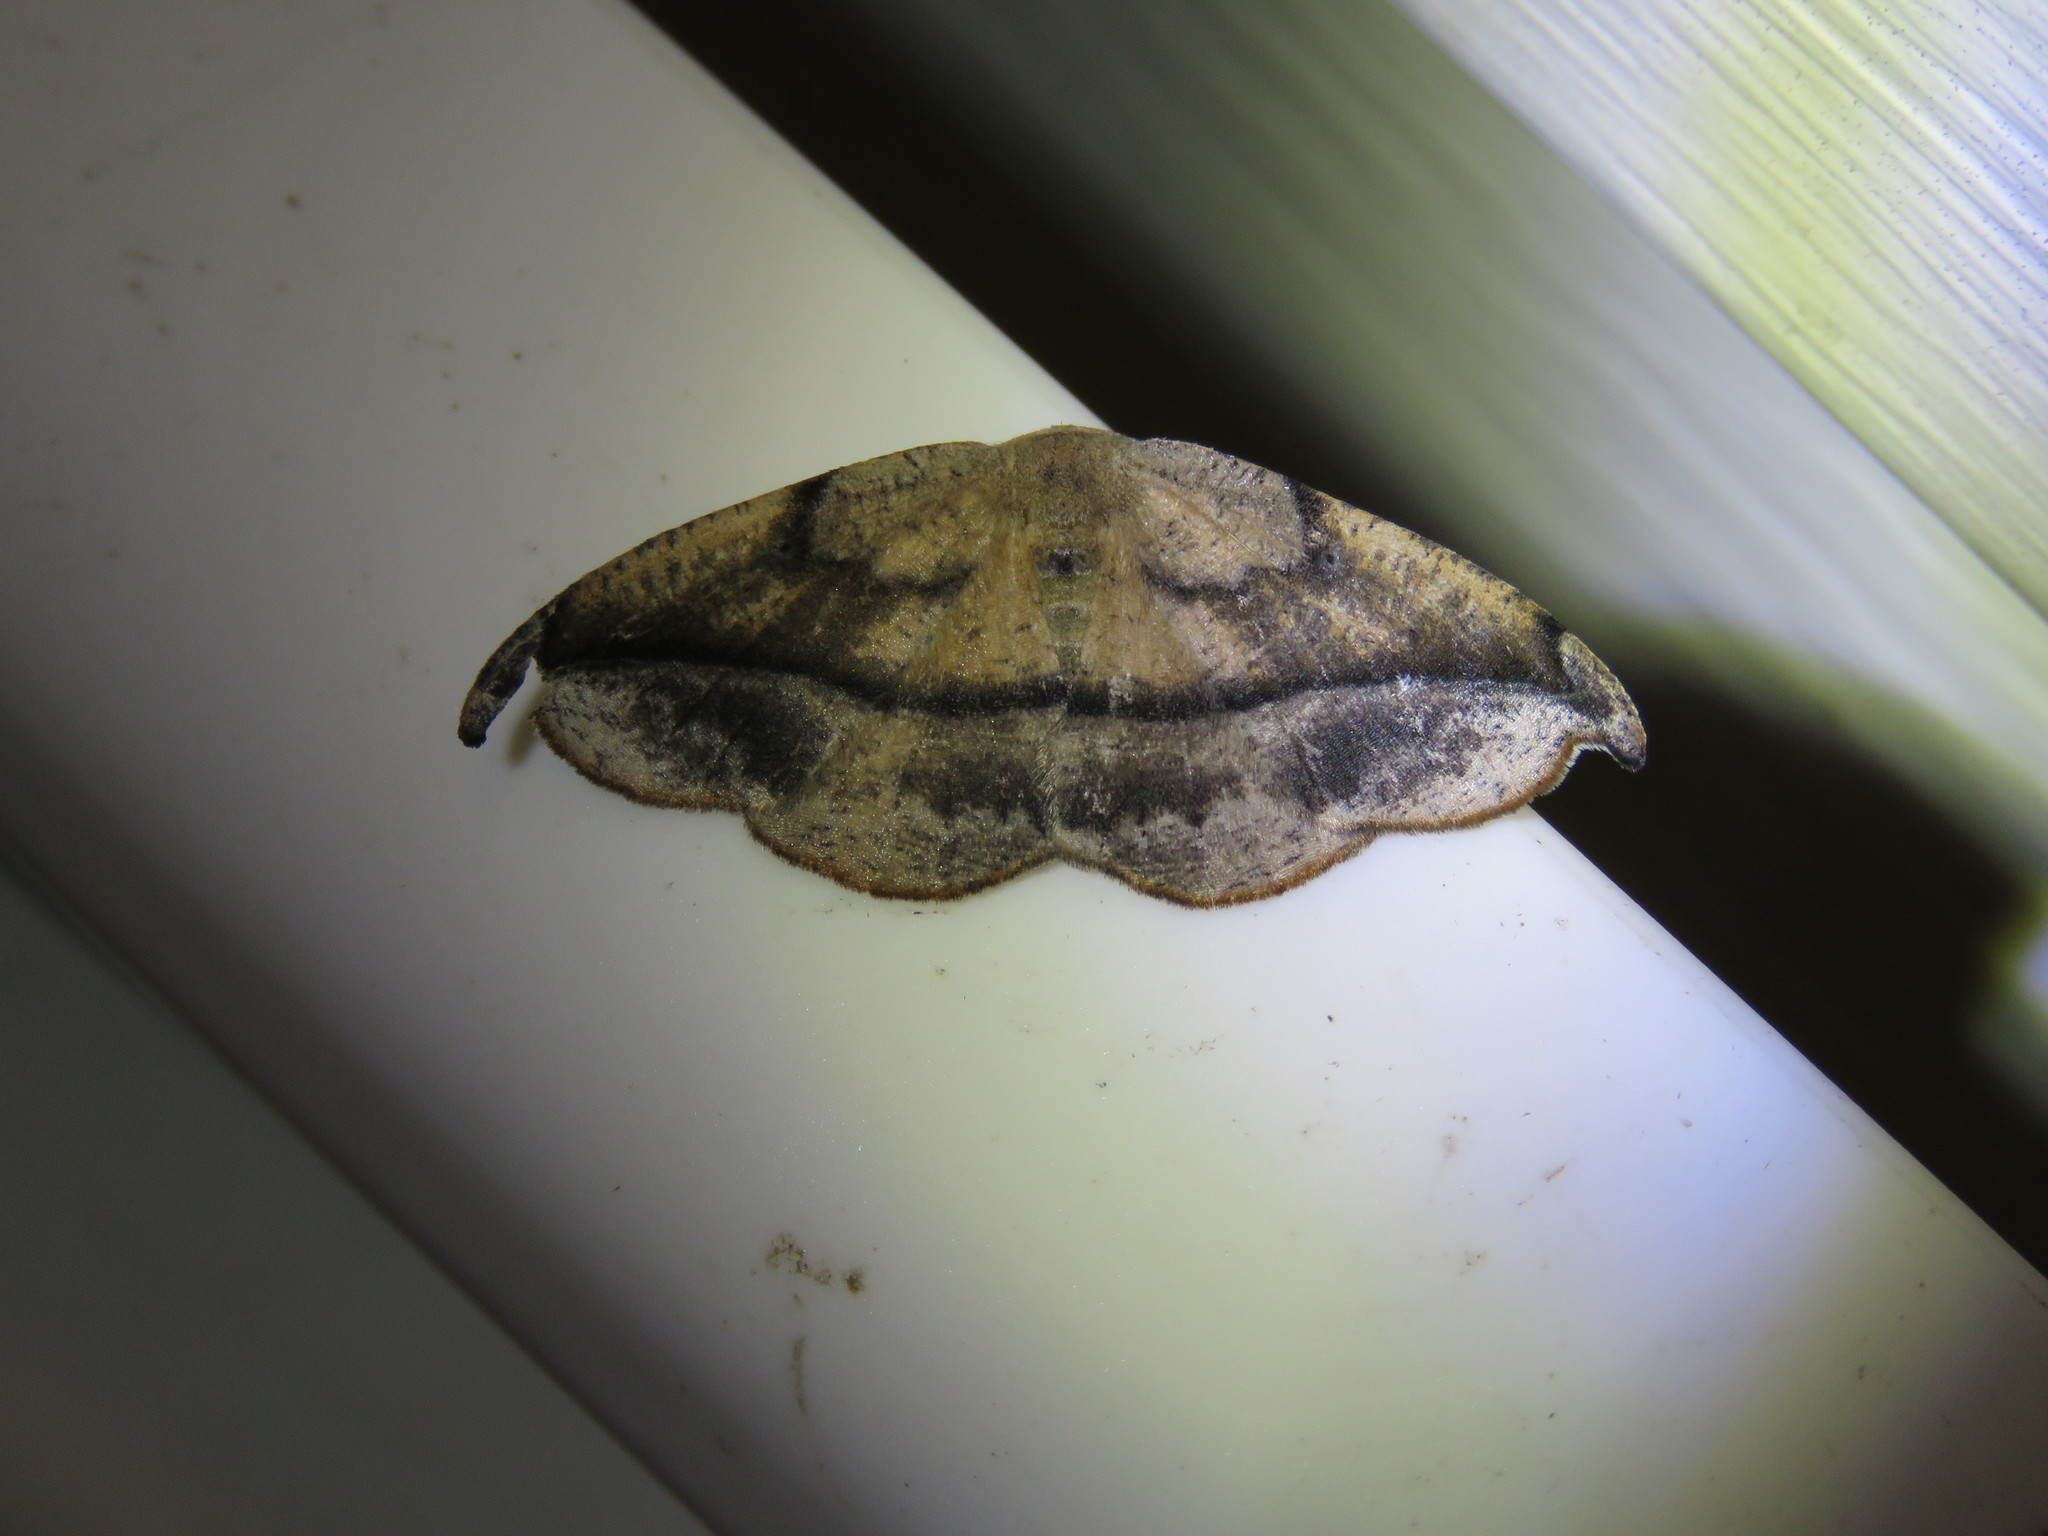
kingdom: Animalia
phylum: Arthropoda
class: Insecta
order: Lepidoptera
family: Geometridae
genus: Patalene
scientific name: Patalene olyzonaria
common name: Juniper geometer moth
